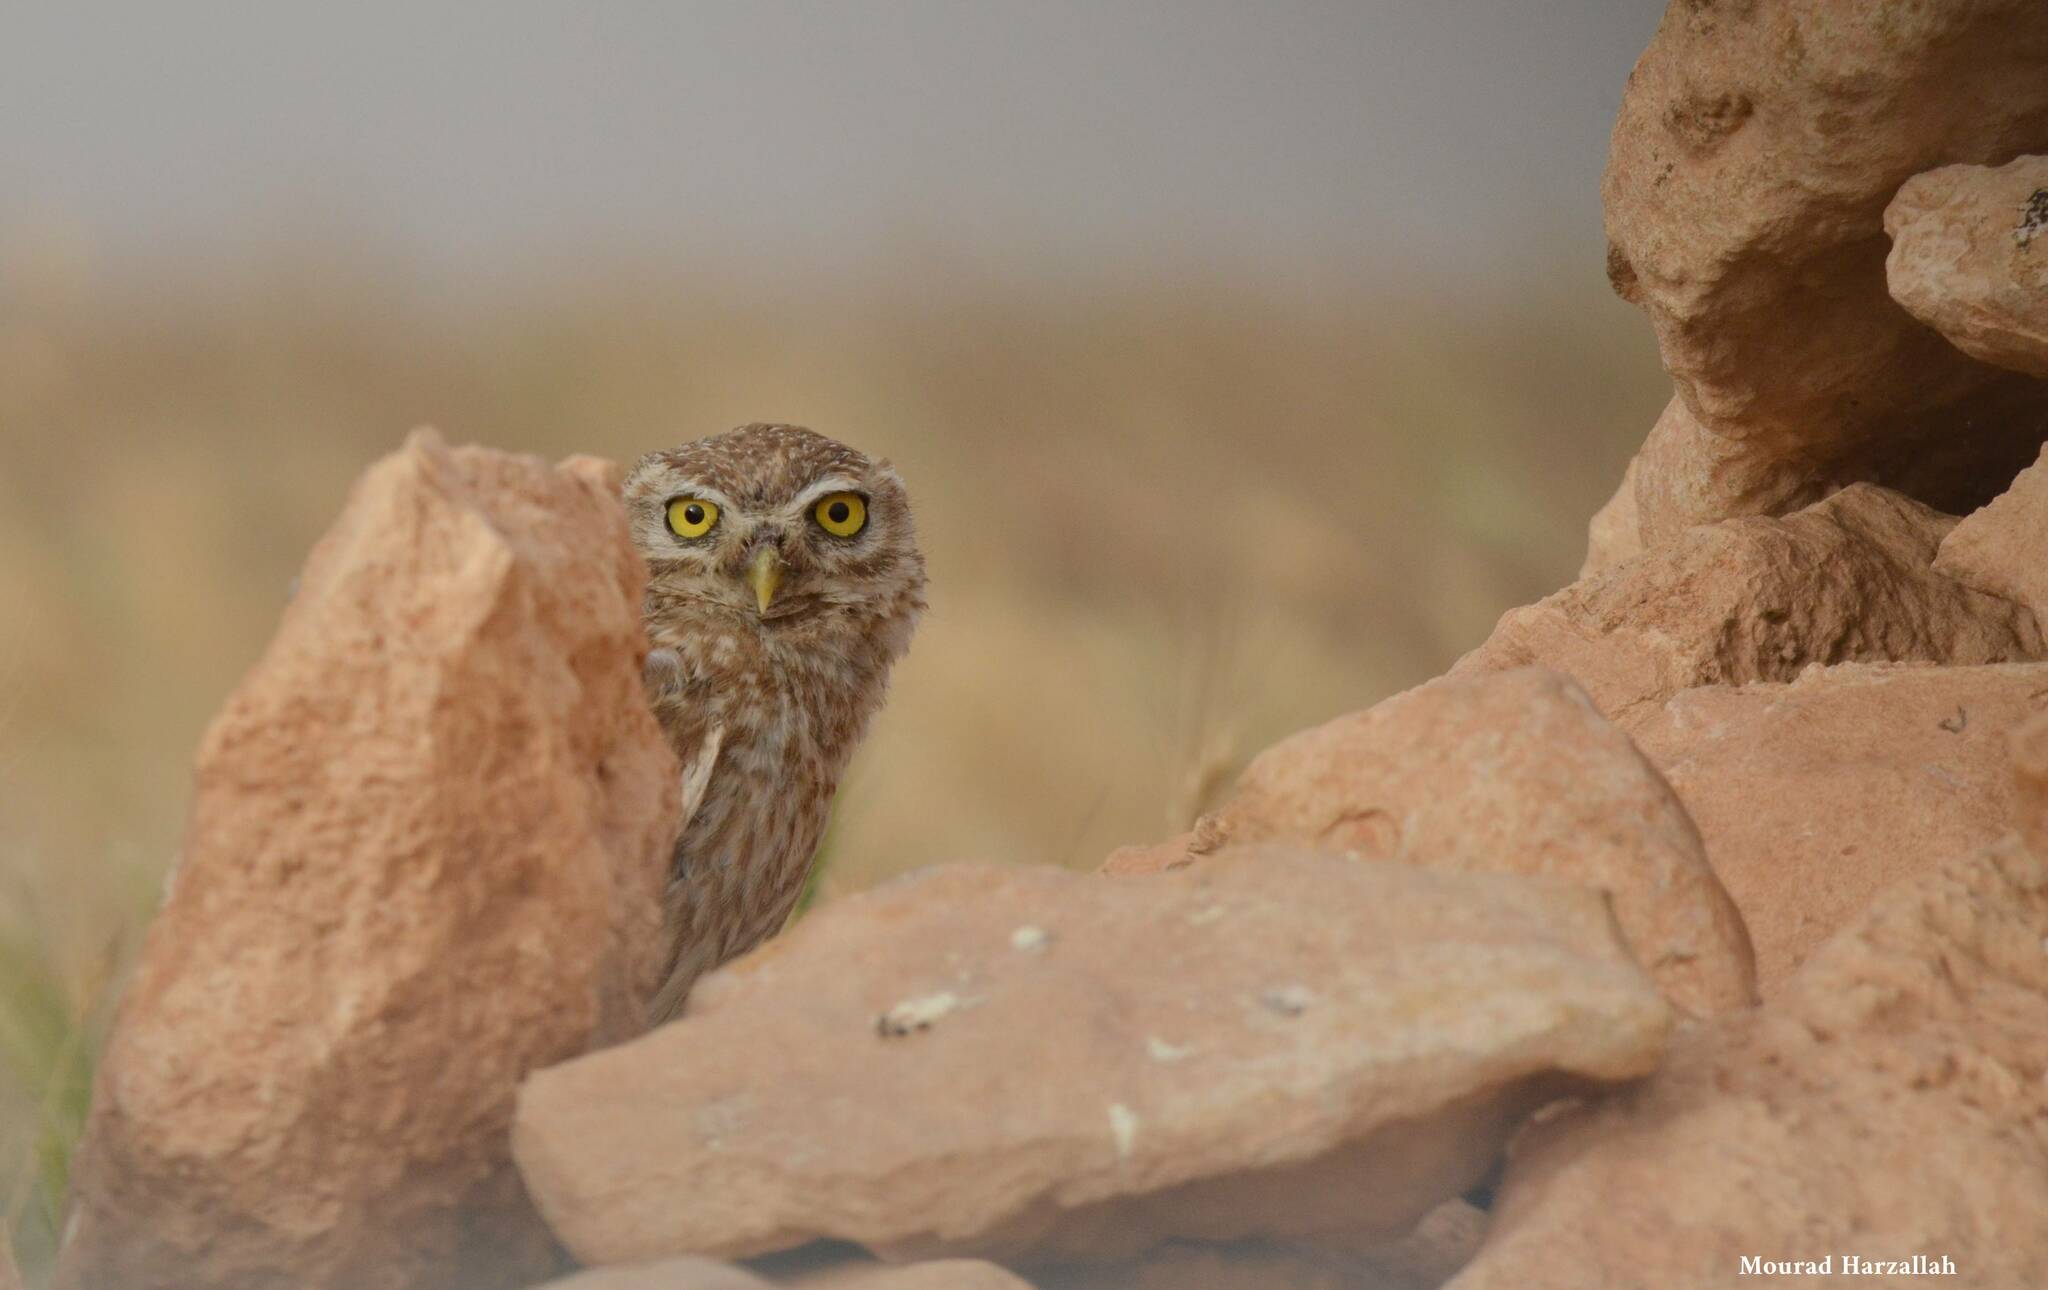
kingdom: Animalia
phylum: Chordata
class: Aves
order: Strigiformes
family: Strigidae
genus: Athene
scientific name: Athene noctua
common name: Little owl
